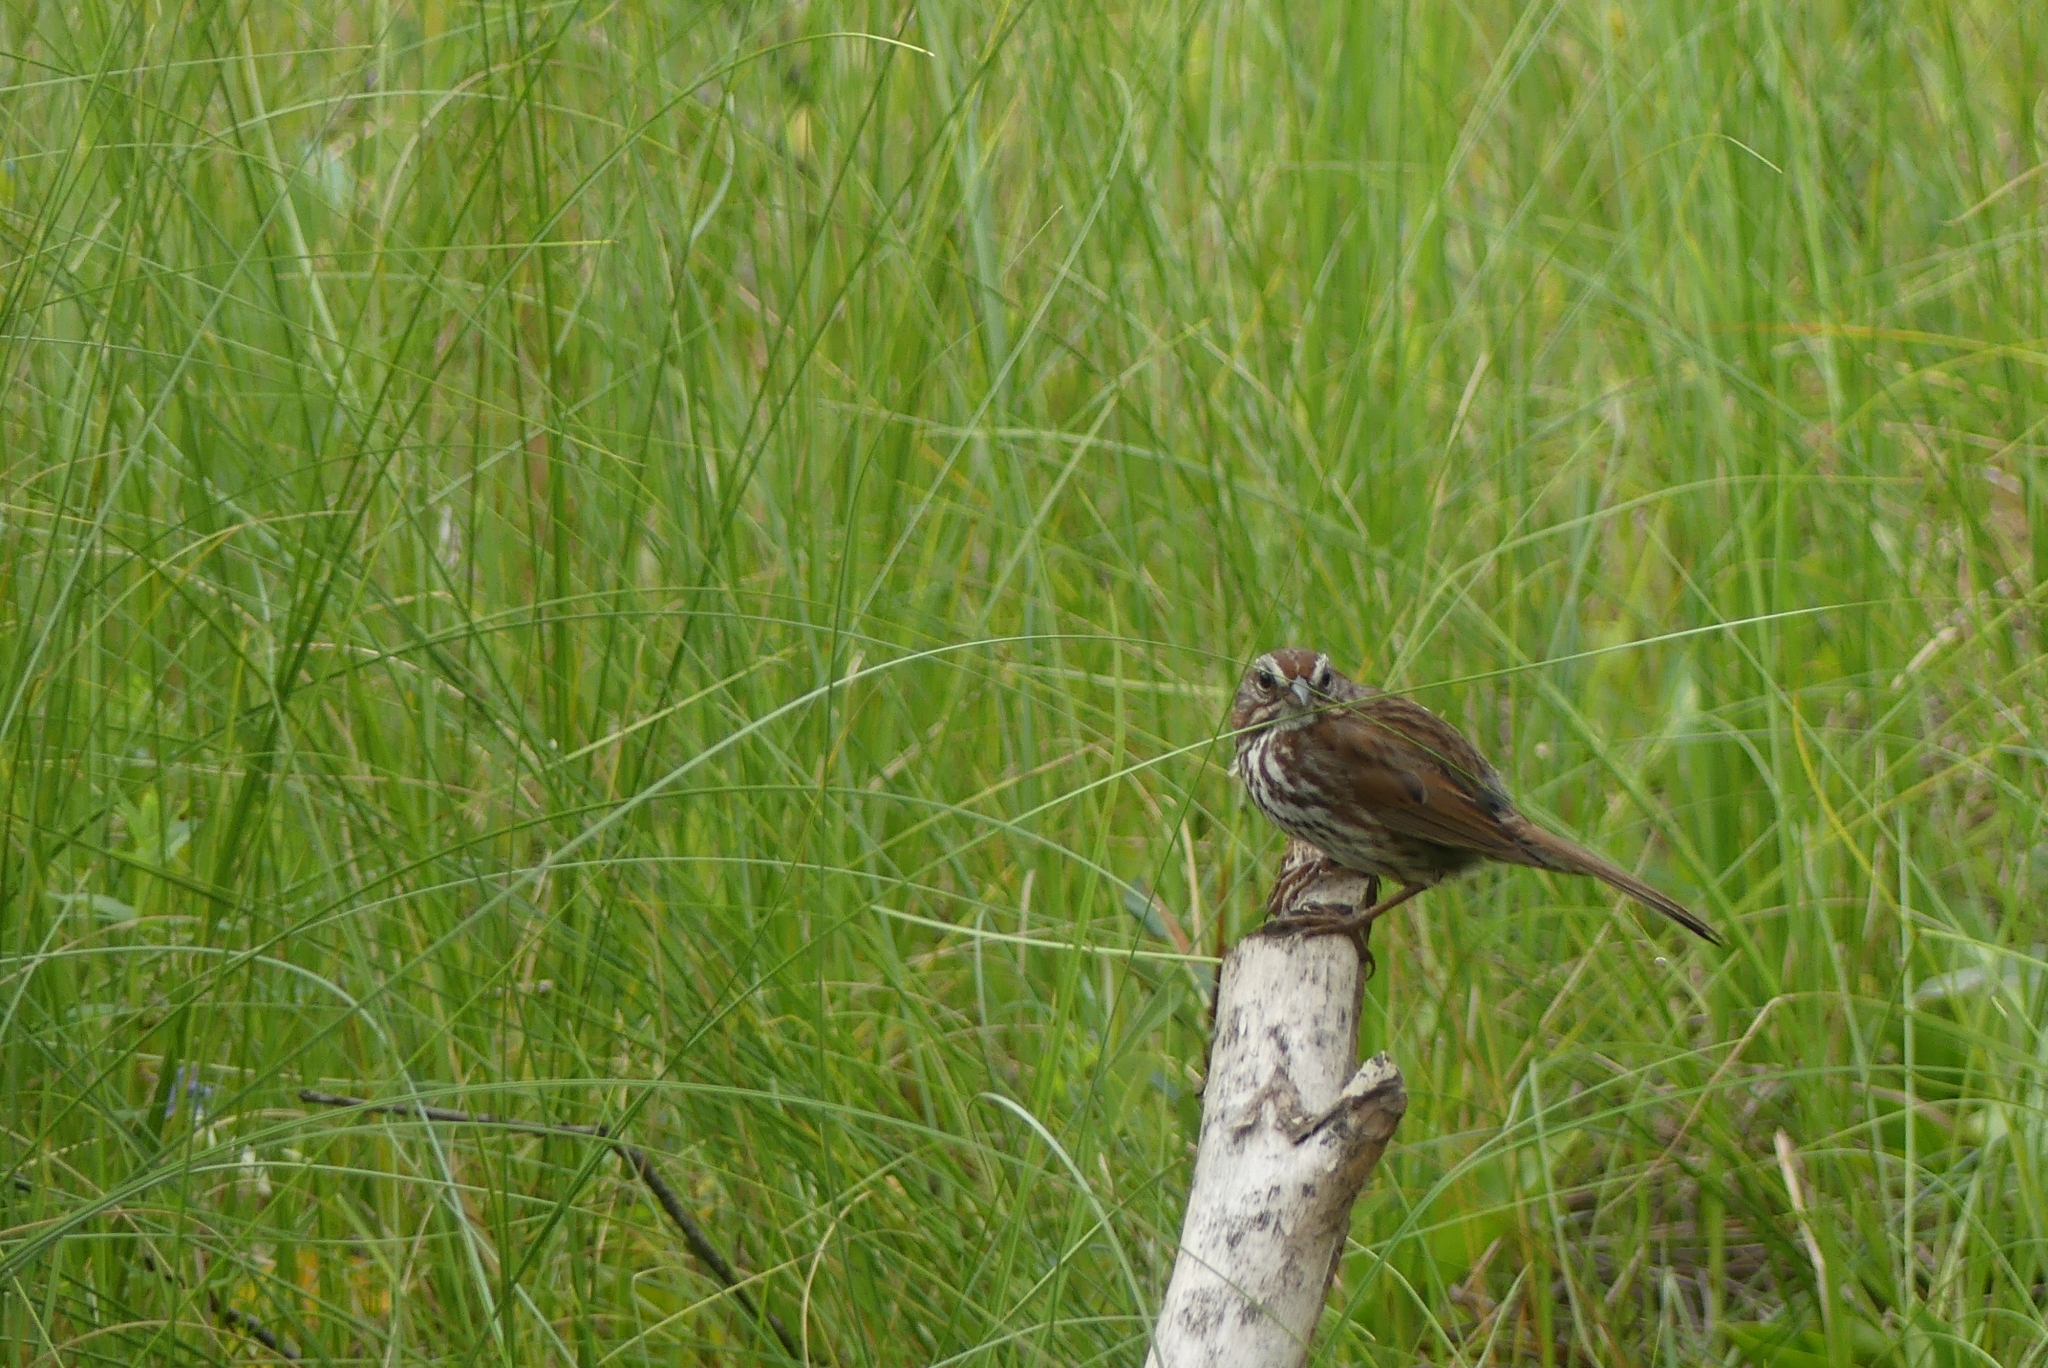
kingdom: Animalia
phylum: Chordata
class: Aves
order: Passeriformes
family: Passerellidae
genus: Melospiza
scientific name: Melospiza melodia
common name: Song sparrow
